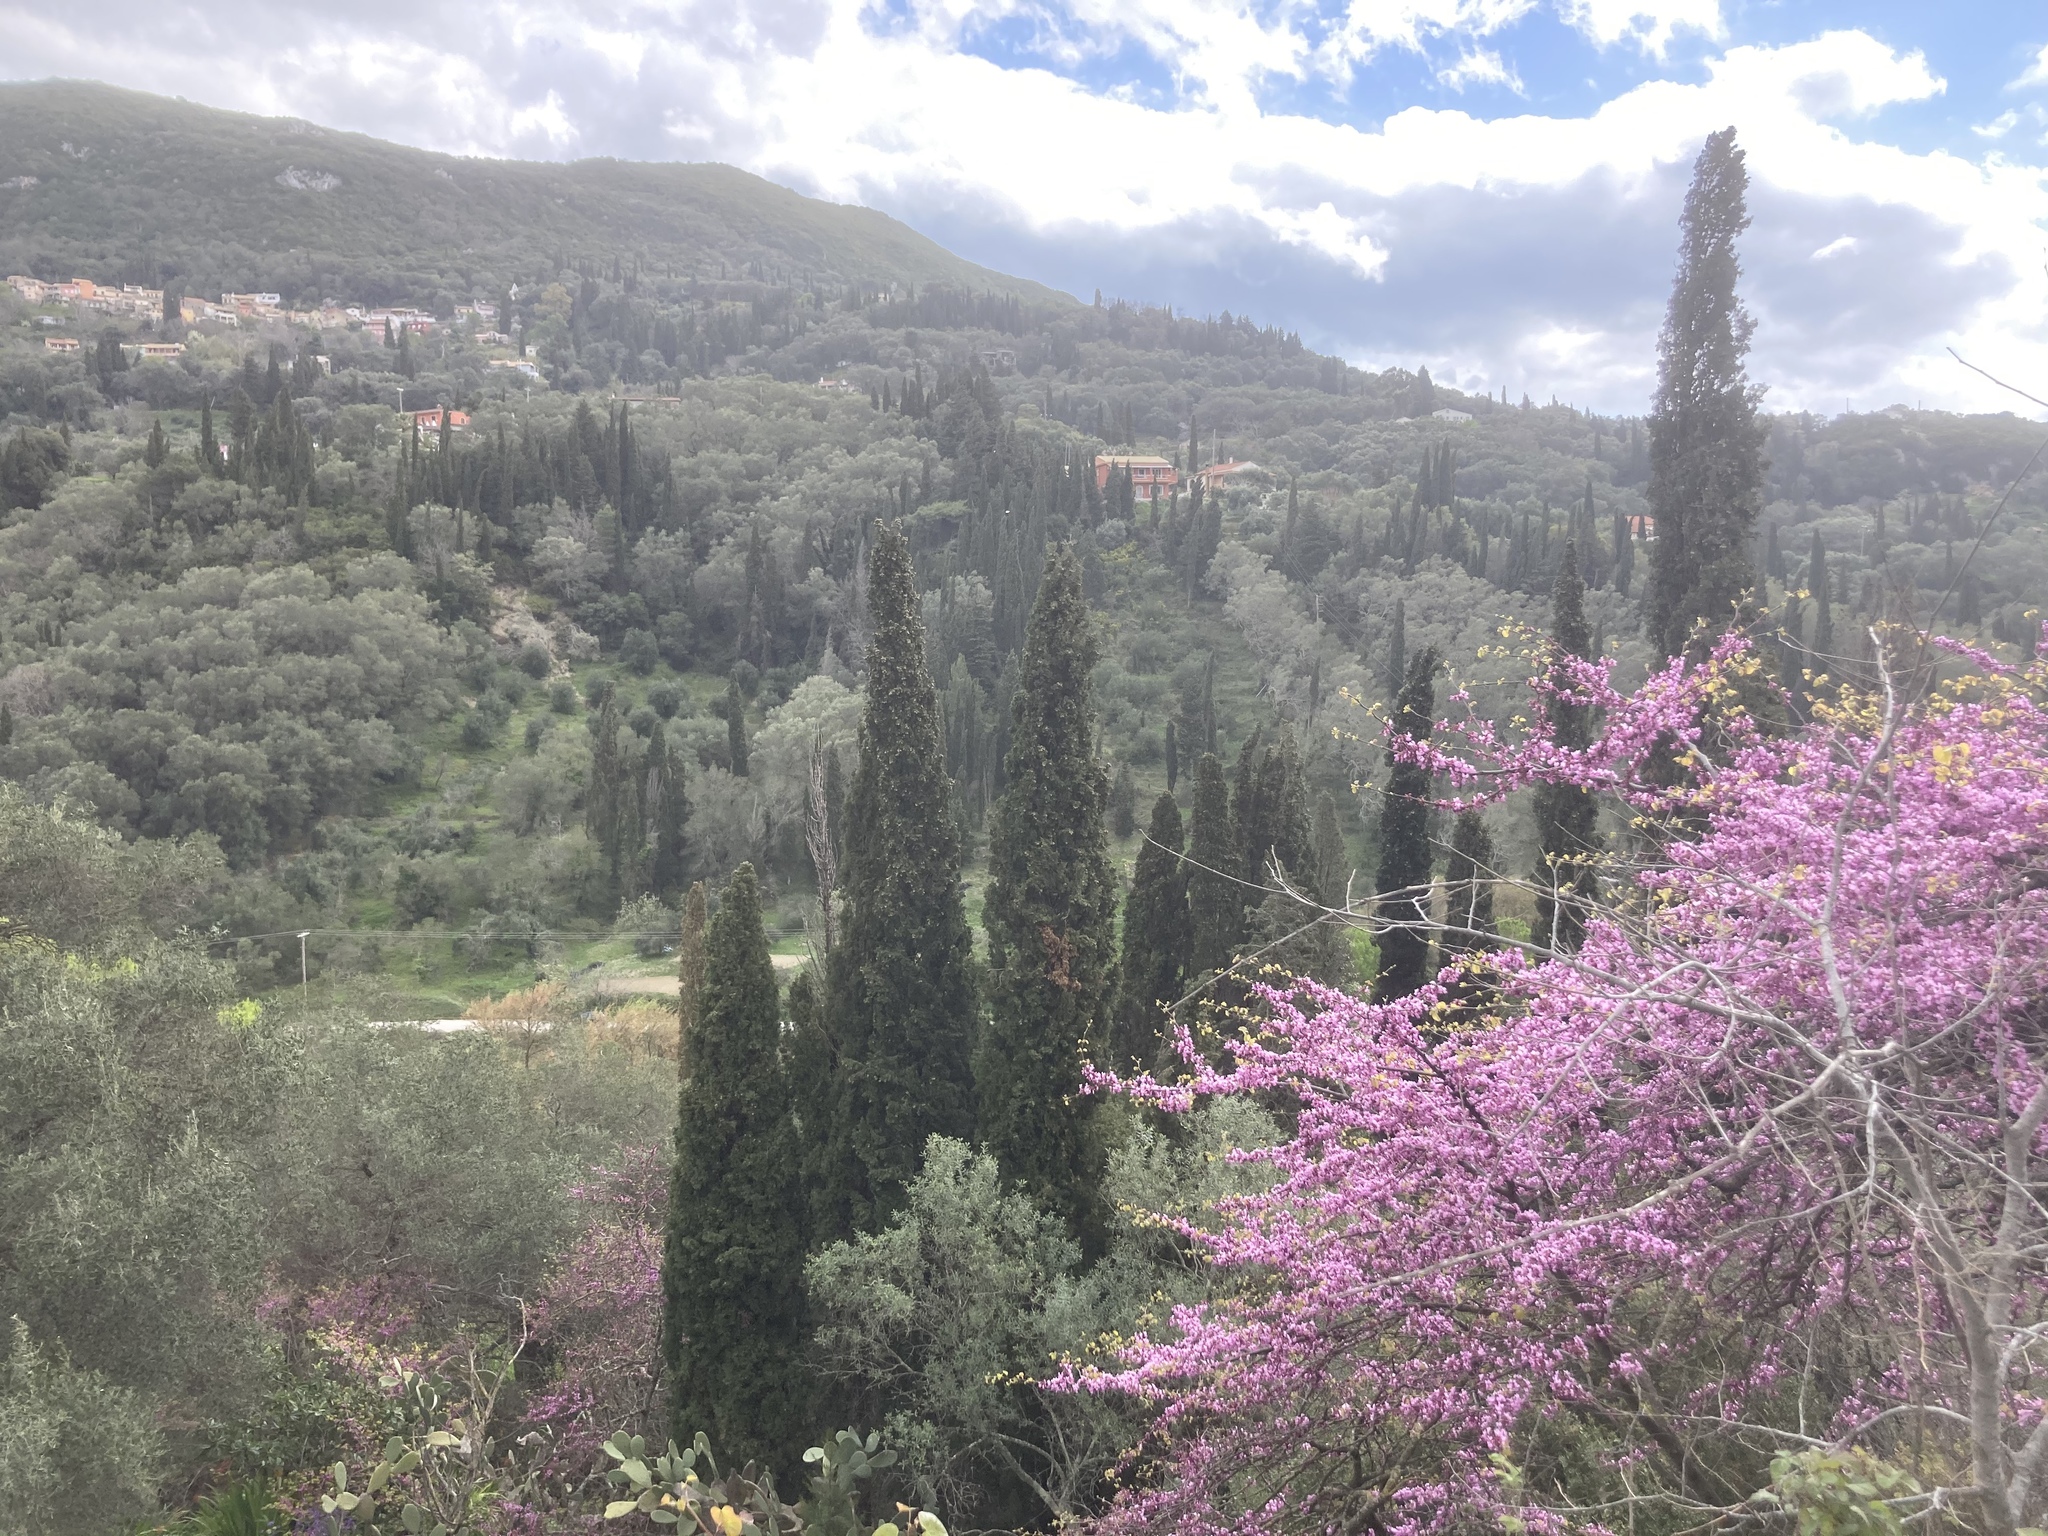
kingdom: Plantae
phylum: Tracheophyta
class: Magnoliopsida
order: Fabales
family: Fabaceae
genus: Cercis
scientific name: Cercis siliquastrum
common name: Judas tree
